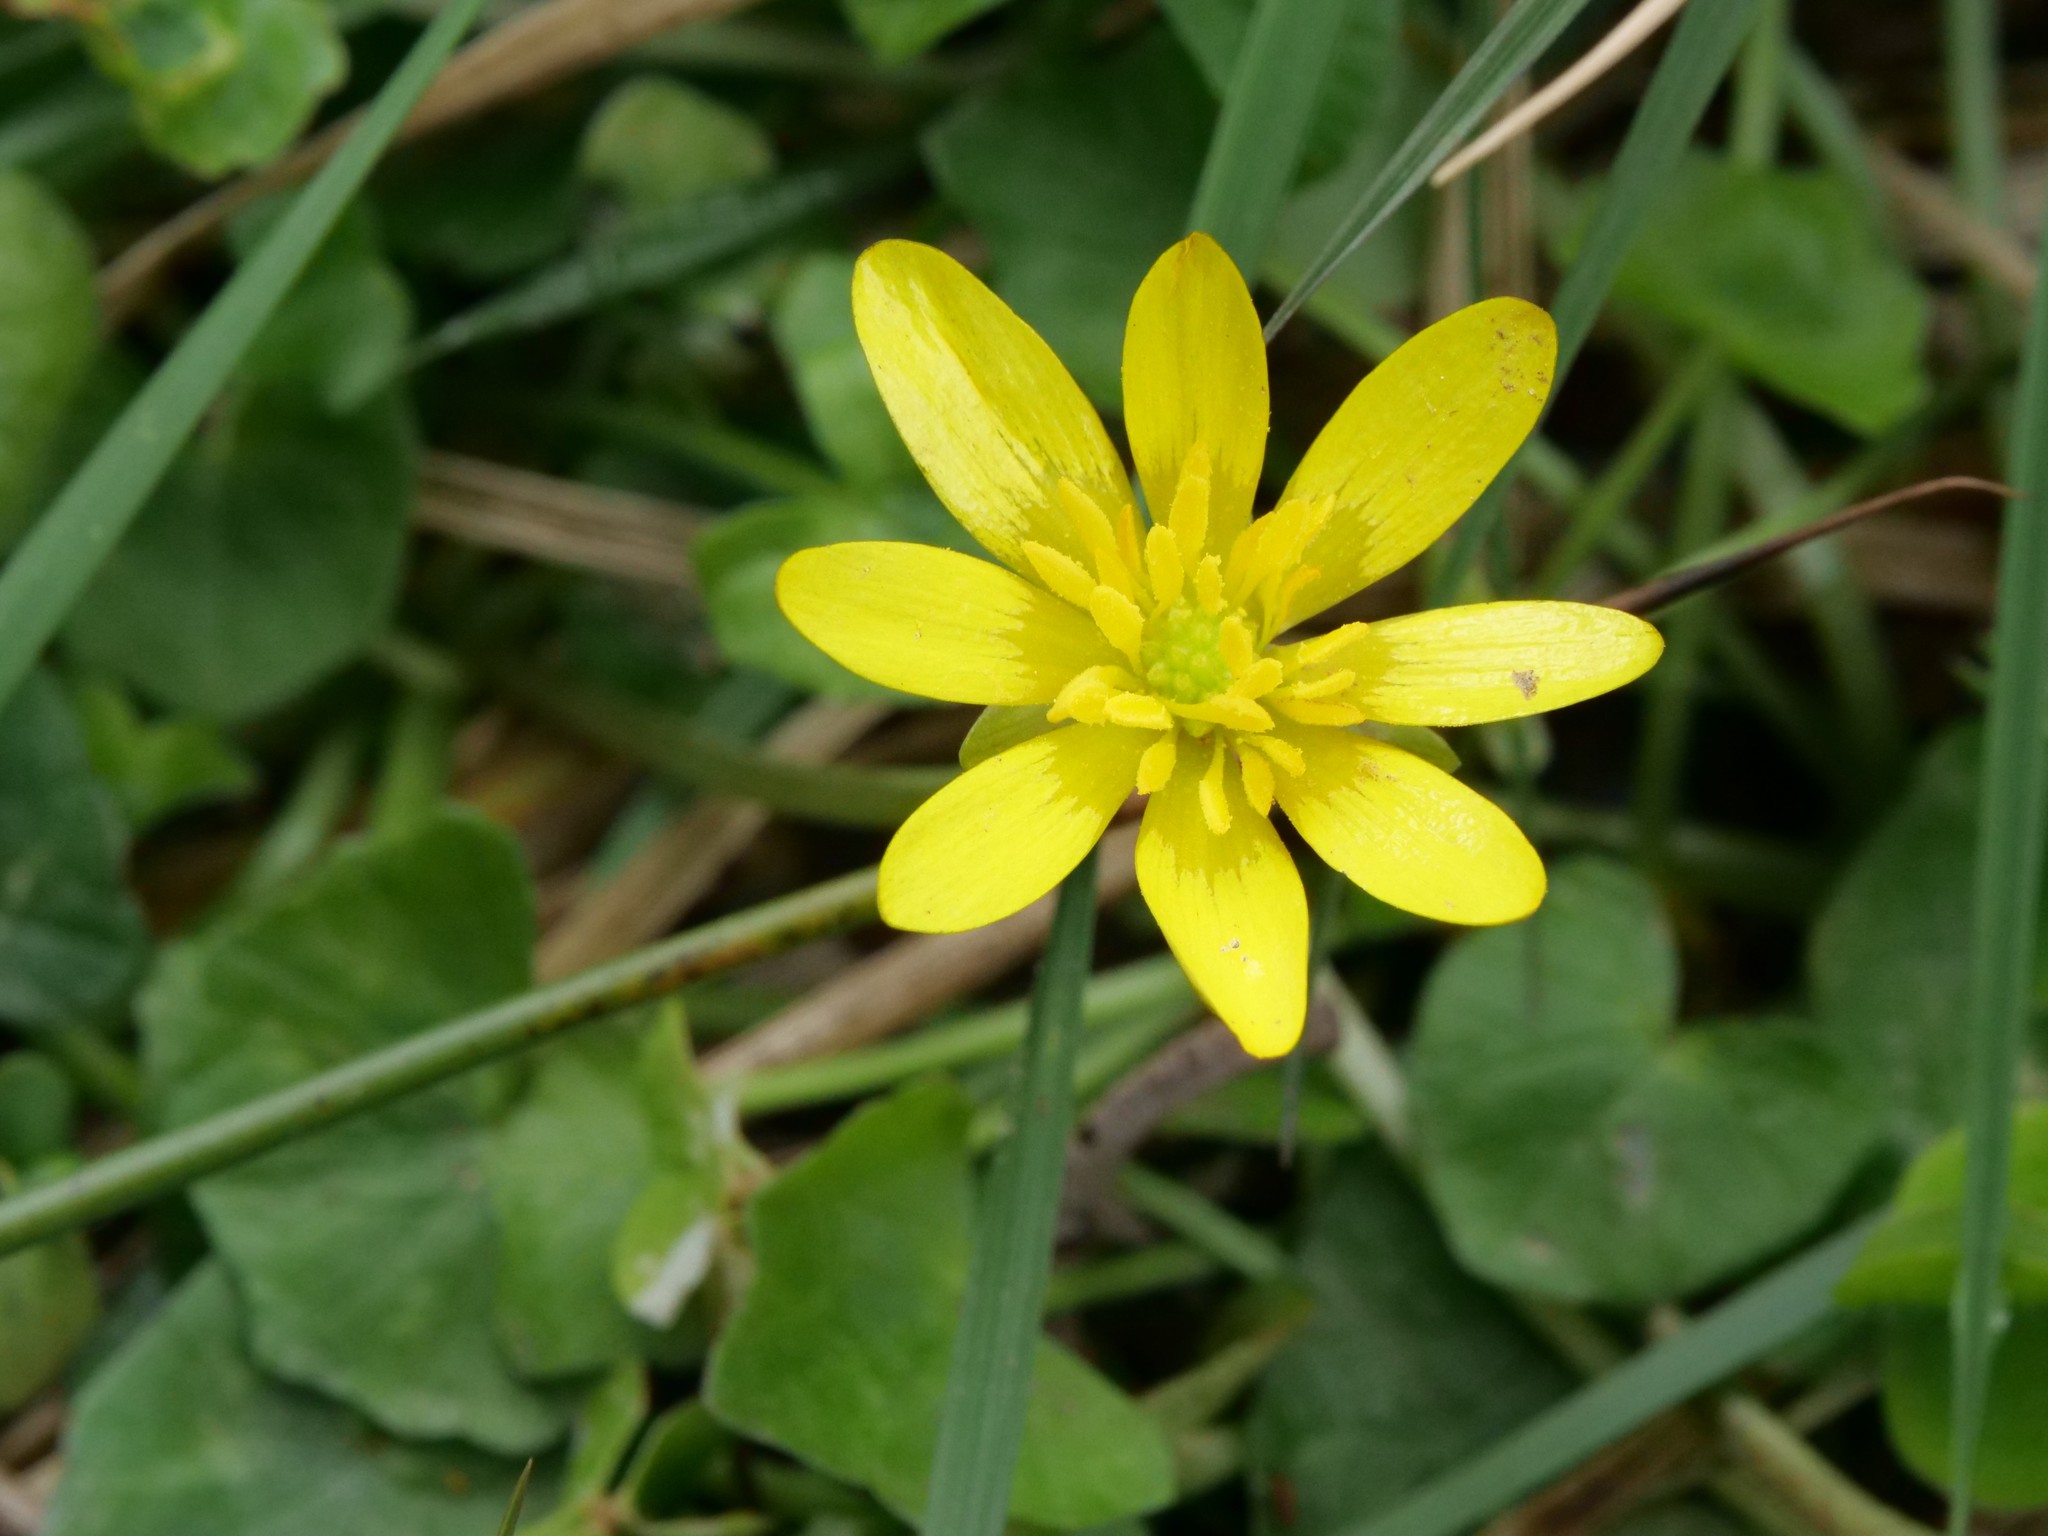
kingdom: Plantae
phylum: Tracheophyta
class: Magnoliopsida
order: Ranunculales
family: Ranunculaceae
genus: Ficaria
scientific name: Ficaria verna
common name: Lesser celandine
